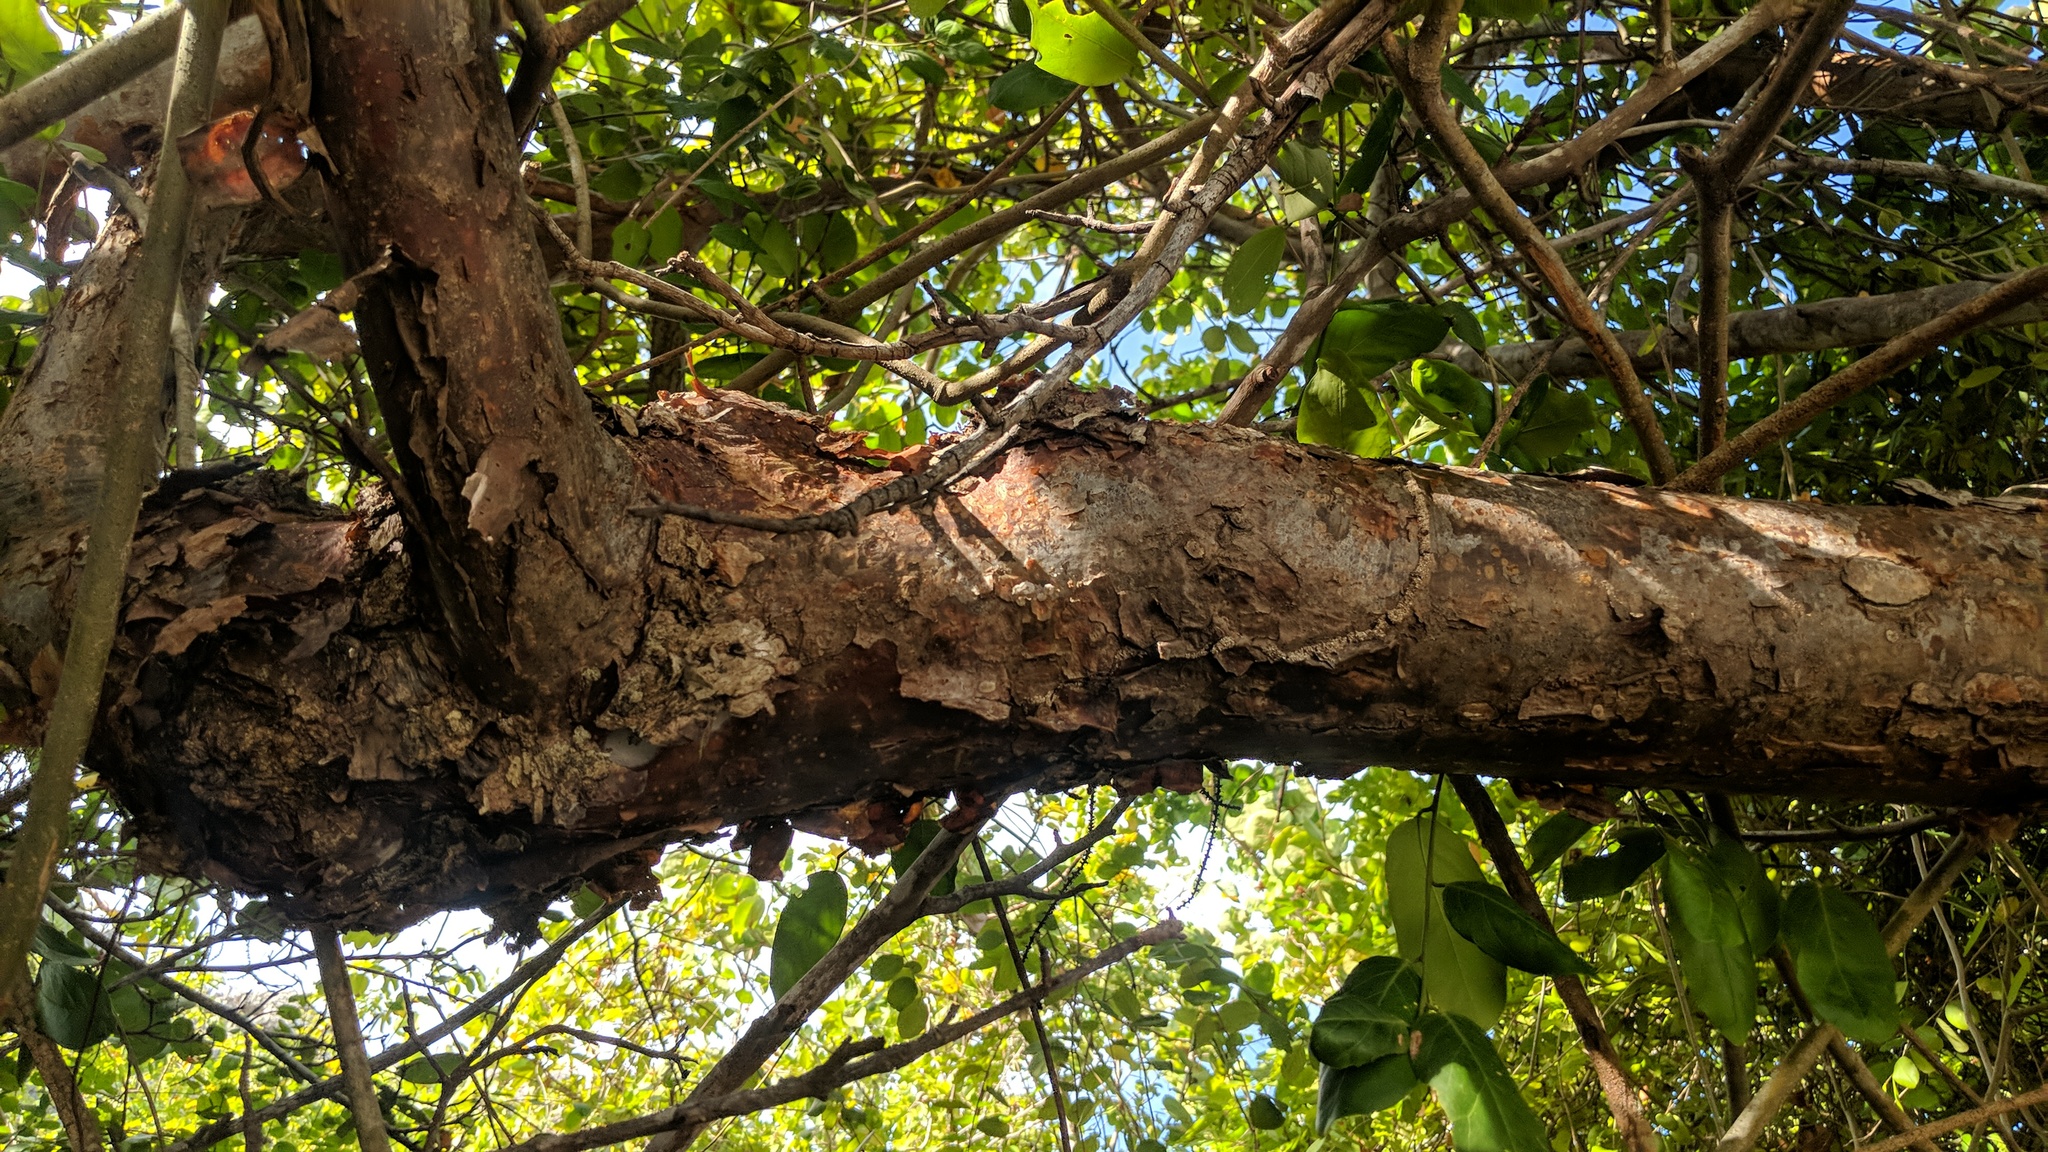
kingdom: Plantae
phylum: Tracheophyta
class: Magnoliopsida
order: Sapindales
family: Burseraceae
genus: Bursera
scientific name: Bursera simaruba
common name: Turpentine tree
